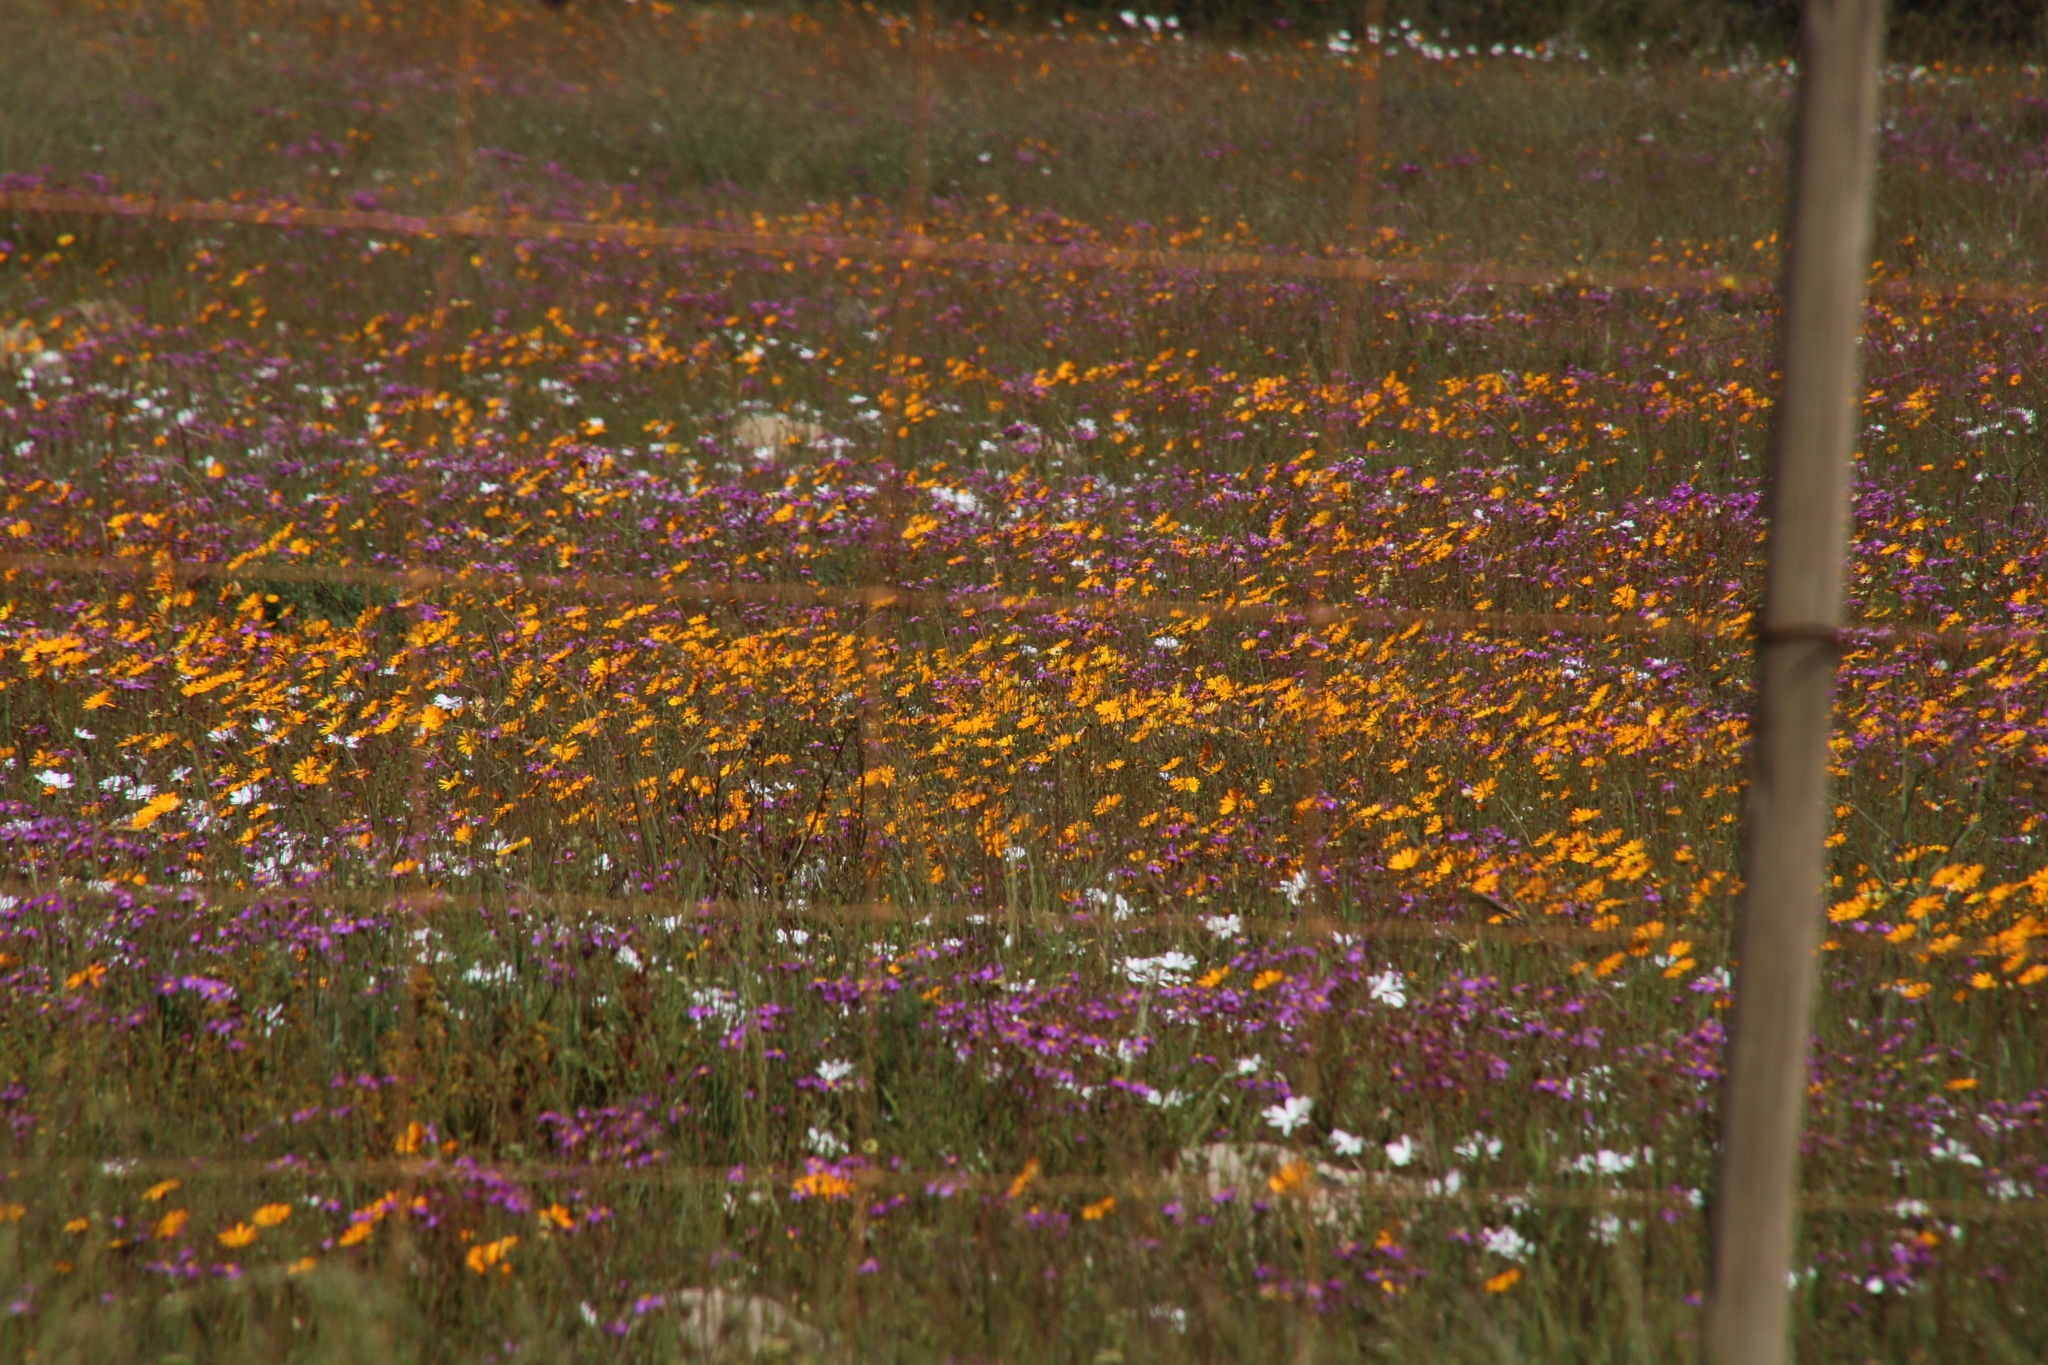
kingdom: Plantae
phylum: Tracheophyta
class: Magnoliopsida
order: Asterales
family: Asteraceae
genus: Dimorphotheca
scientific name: Dimorphotheca pluvialis
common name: Weather prophet
